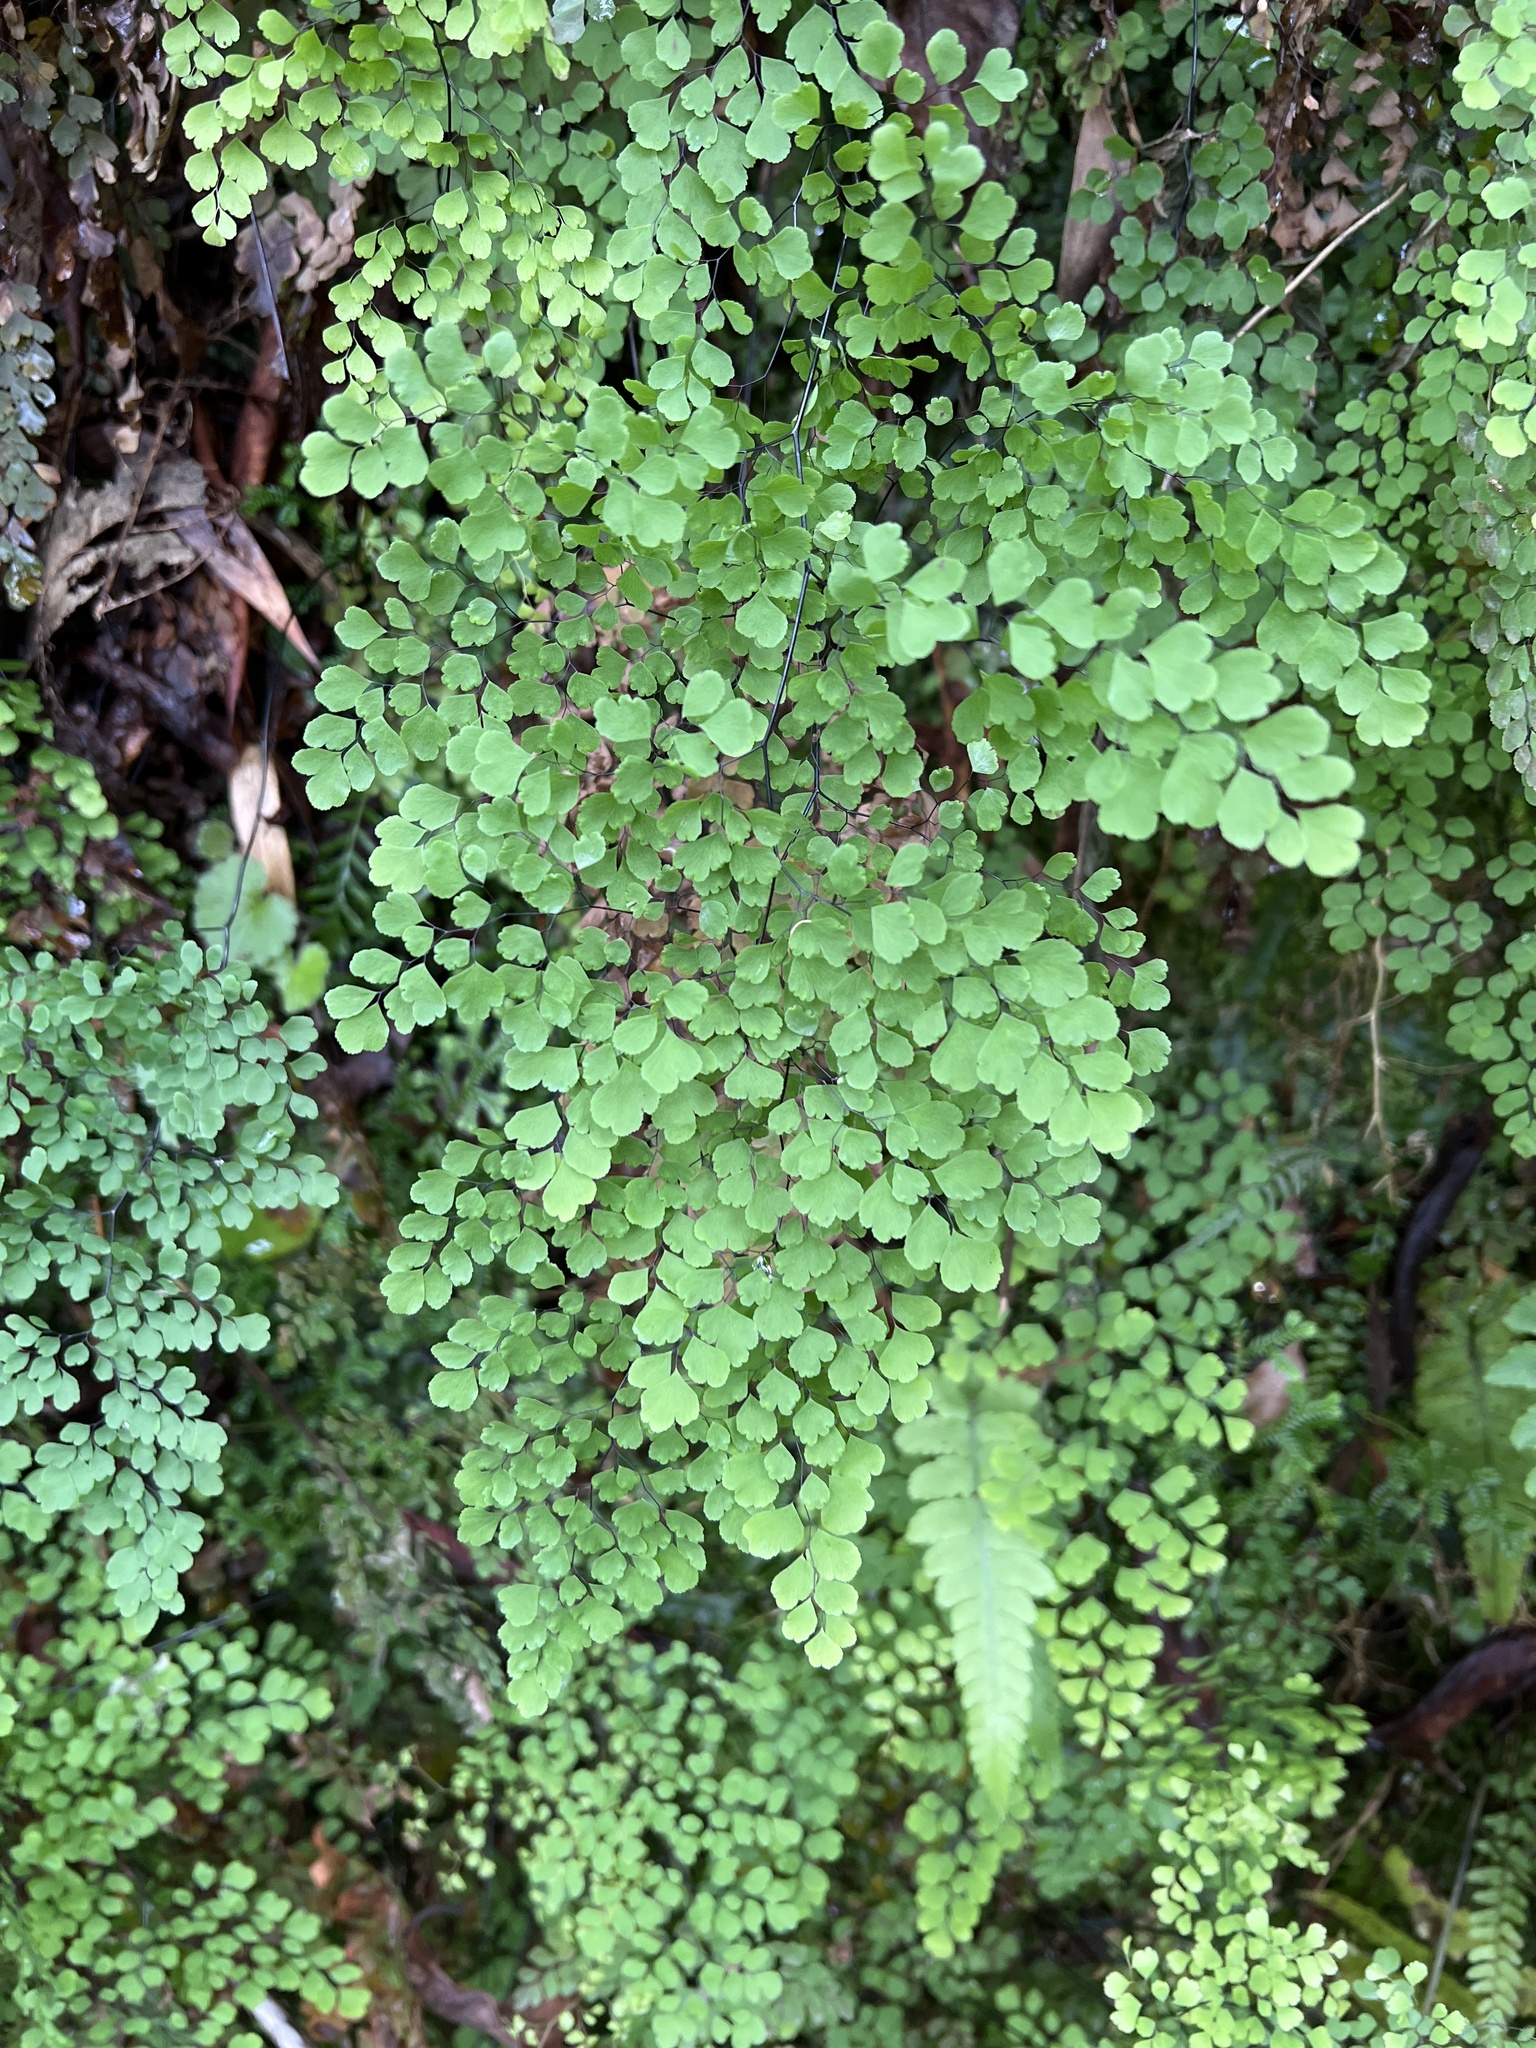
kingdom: Plantae
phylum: Tracheophyta
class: Polypodiopsida
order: Polypodiales
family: Pteridaceae
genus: Adiantum
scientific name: Adiantum raddianum
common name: Delta maidenhair fern
